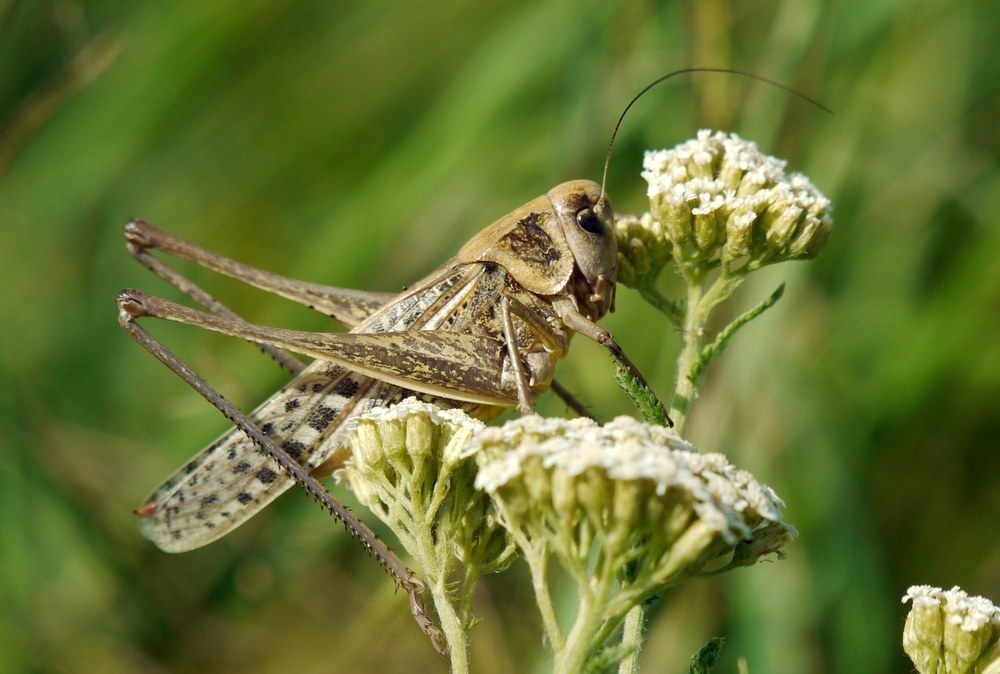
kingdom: Animalia
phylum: Arthropoda
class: Insecta
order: Orthoptera
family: Tettigoniidae
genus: Decticus
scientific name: Decticus verrucivorus
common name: Wart-biter
